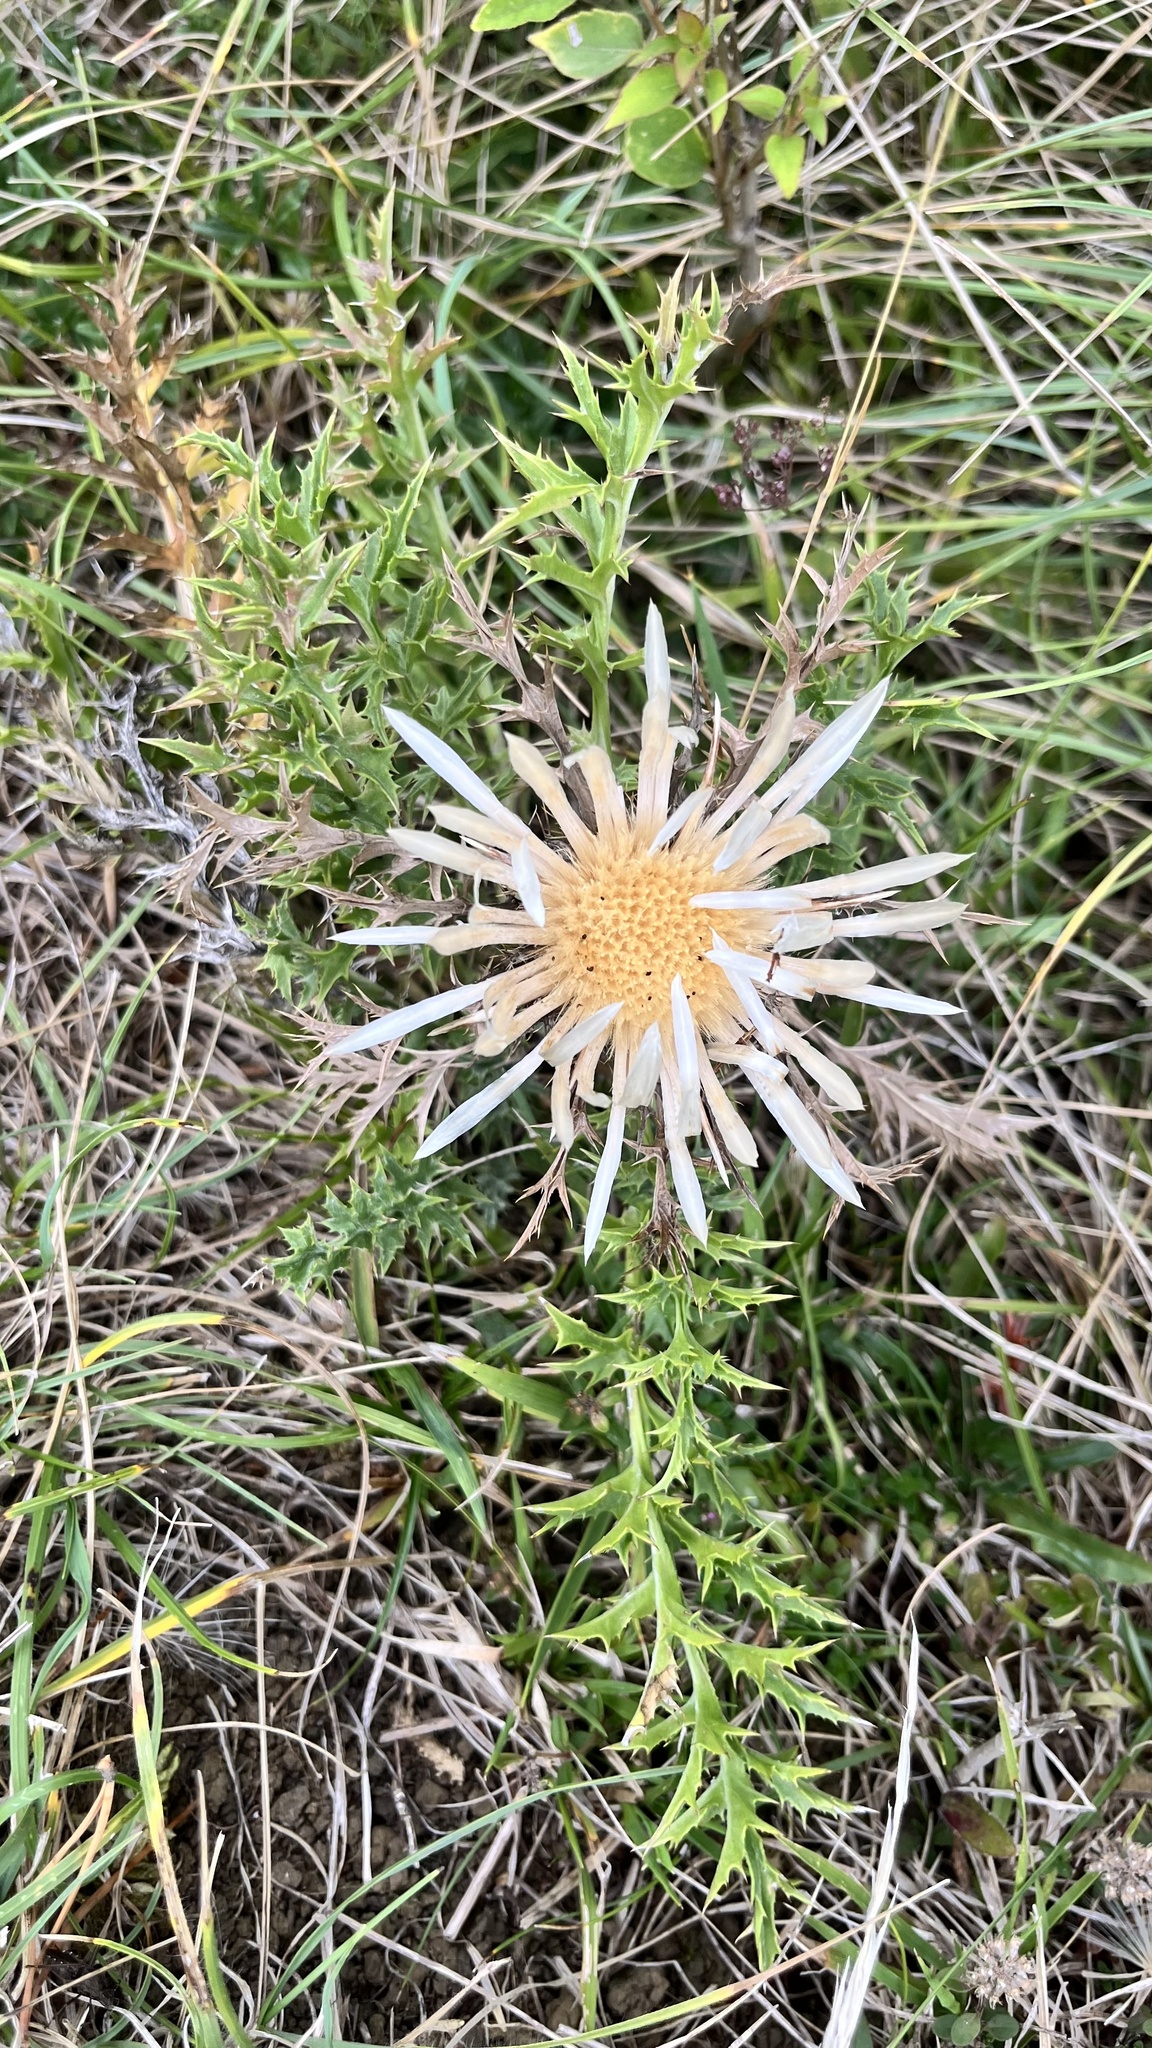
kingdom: Plantae
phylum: Tracheophyta
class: Magnoliopsida
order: Asterales
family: Asteraceae
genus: Carlina
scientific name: Carlina acaulis
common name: Stemless carline thistle
